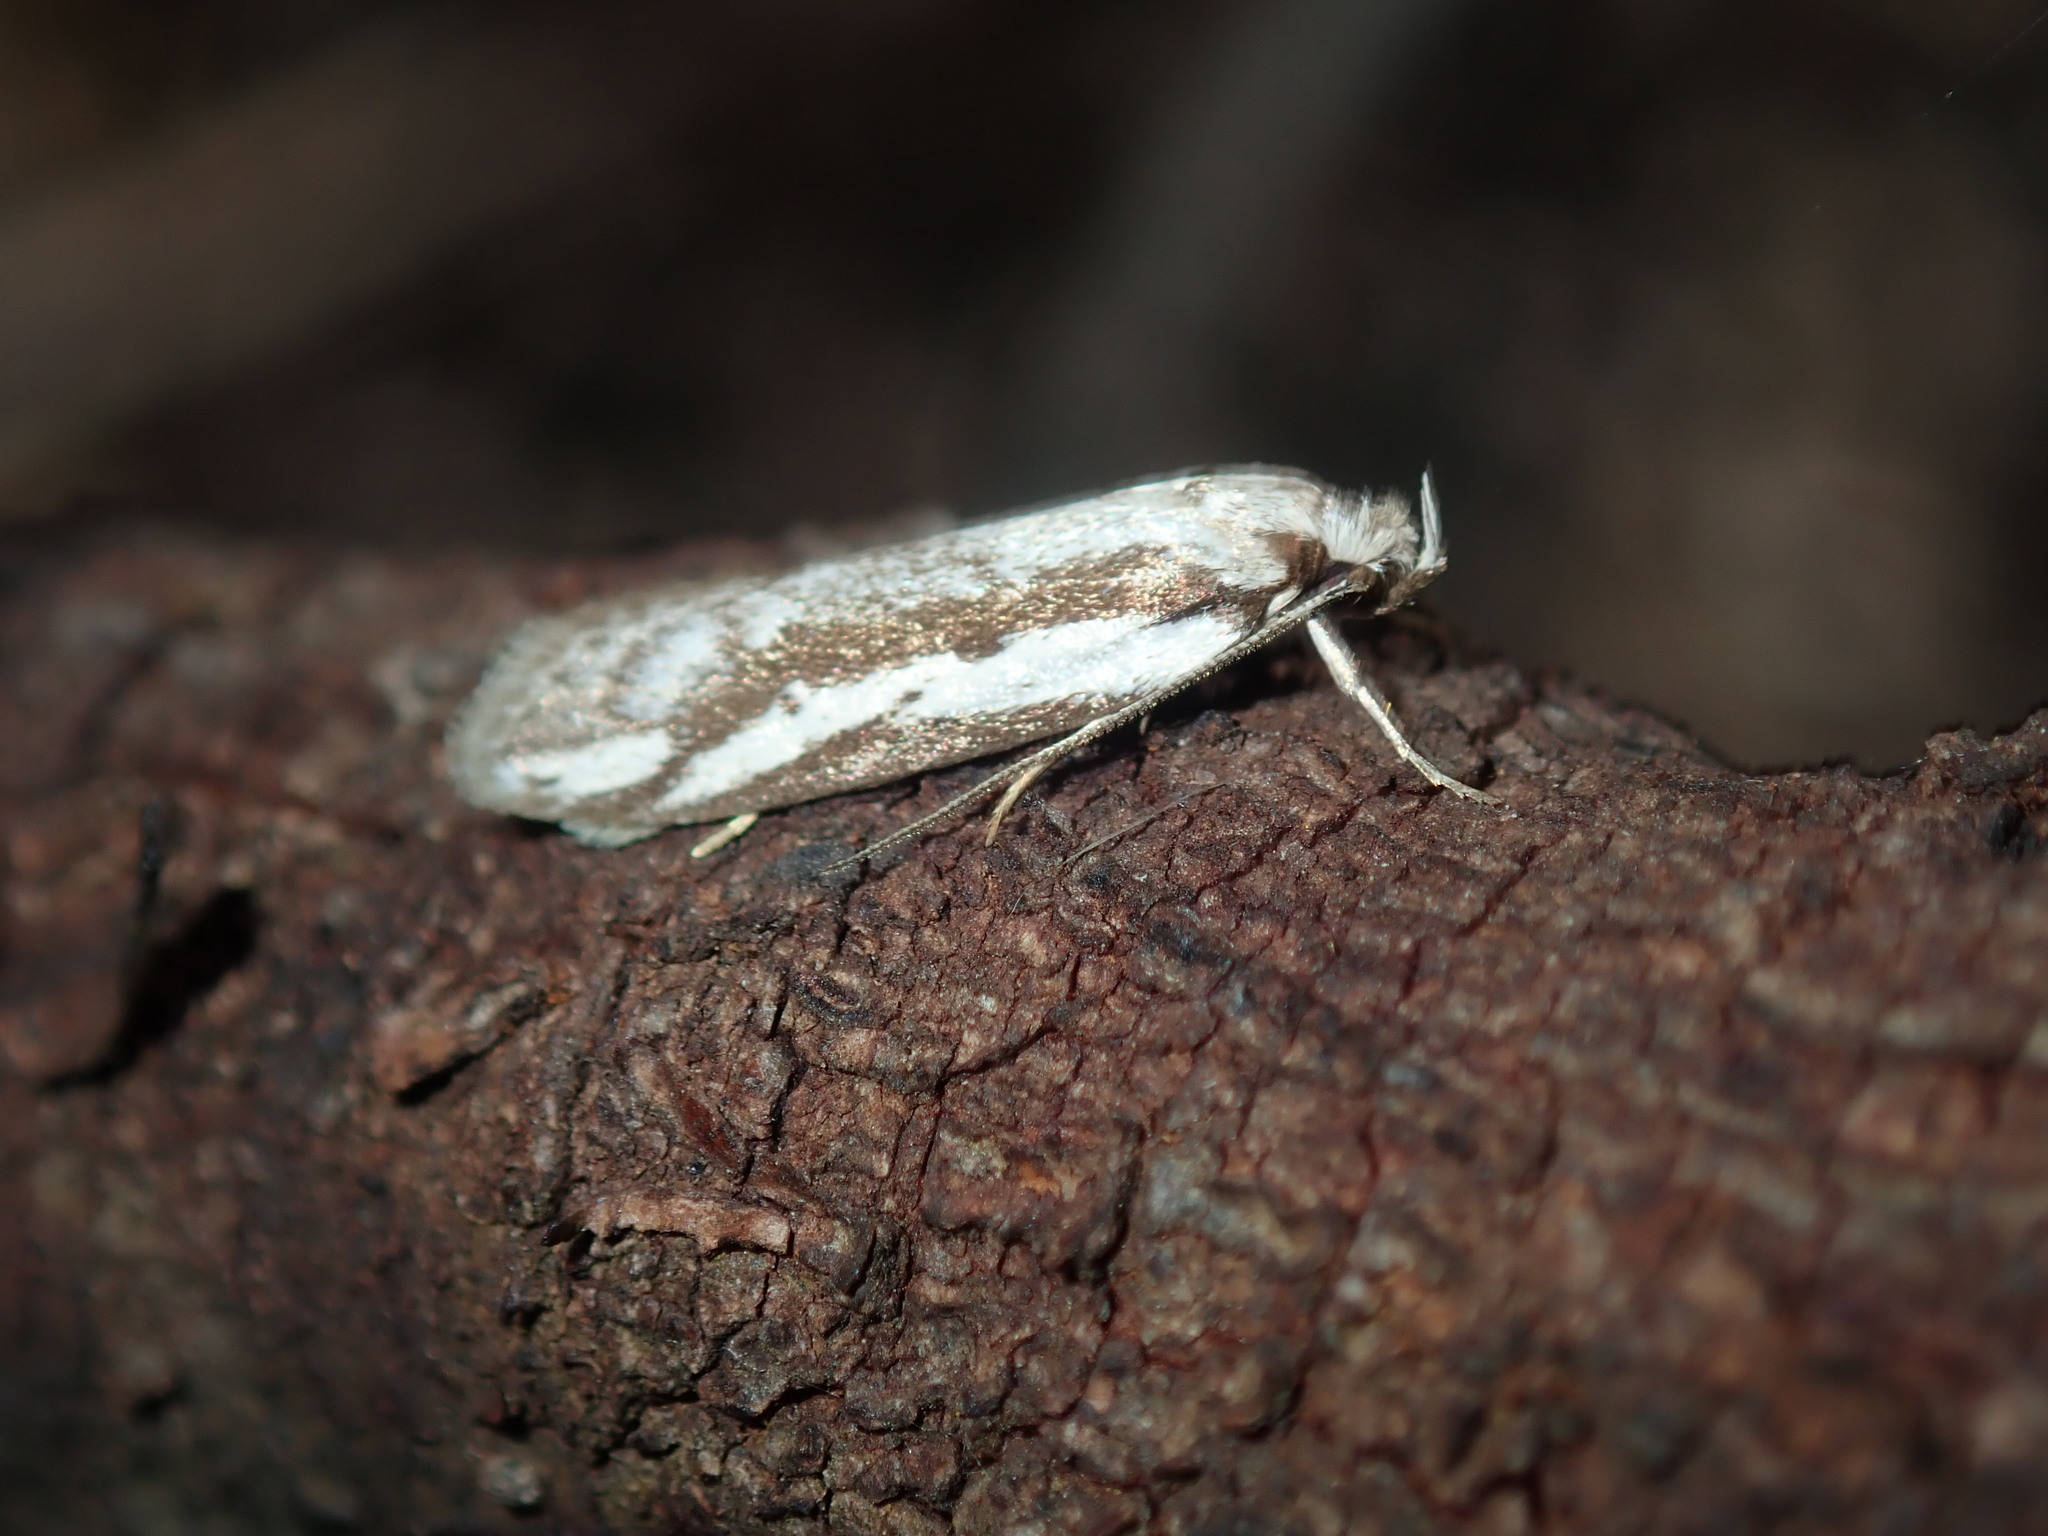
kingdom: Animalia
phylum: Arthropoda
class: Insecta
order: Lepidoptera
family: Oecophoridae
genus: Philobota
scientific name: Philobota glaucoptera
